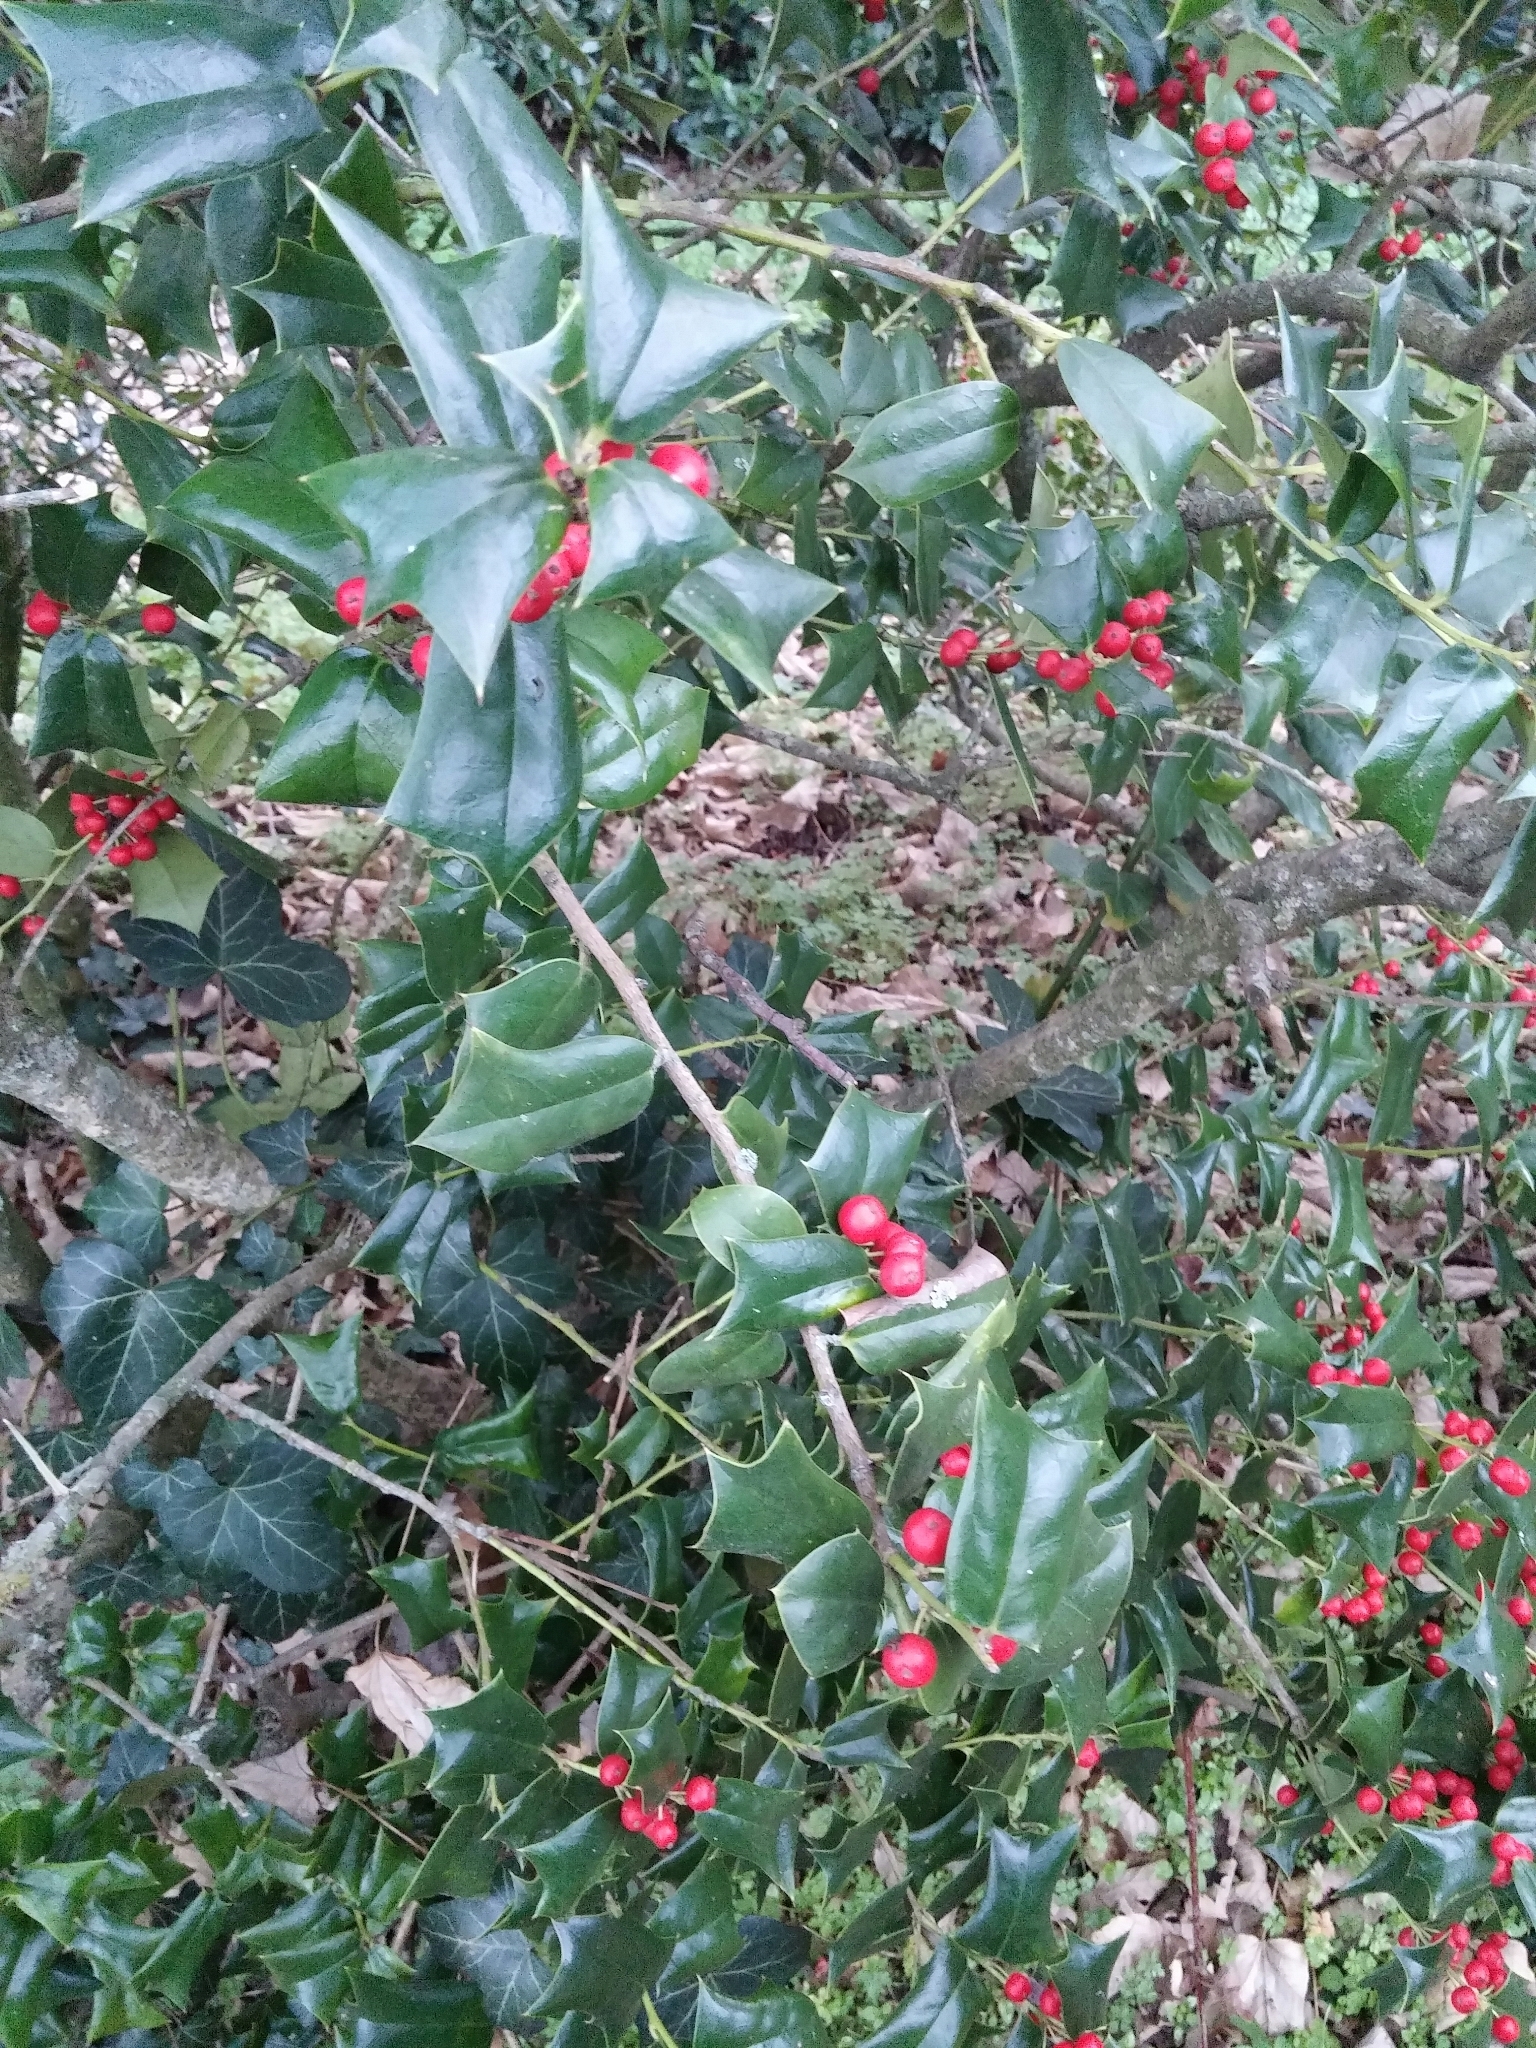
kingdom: Plantae
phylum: Tracheophyta
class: Magnoliopsida
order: Aquifoliales
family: Aquifoliaceae
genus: Ilex
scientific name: Ilex aquifolium
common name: English holly
